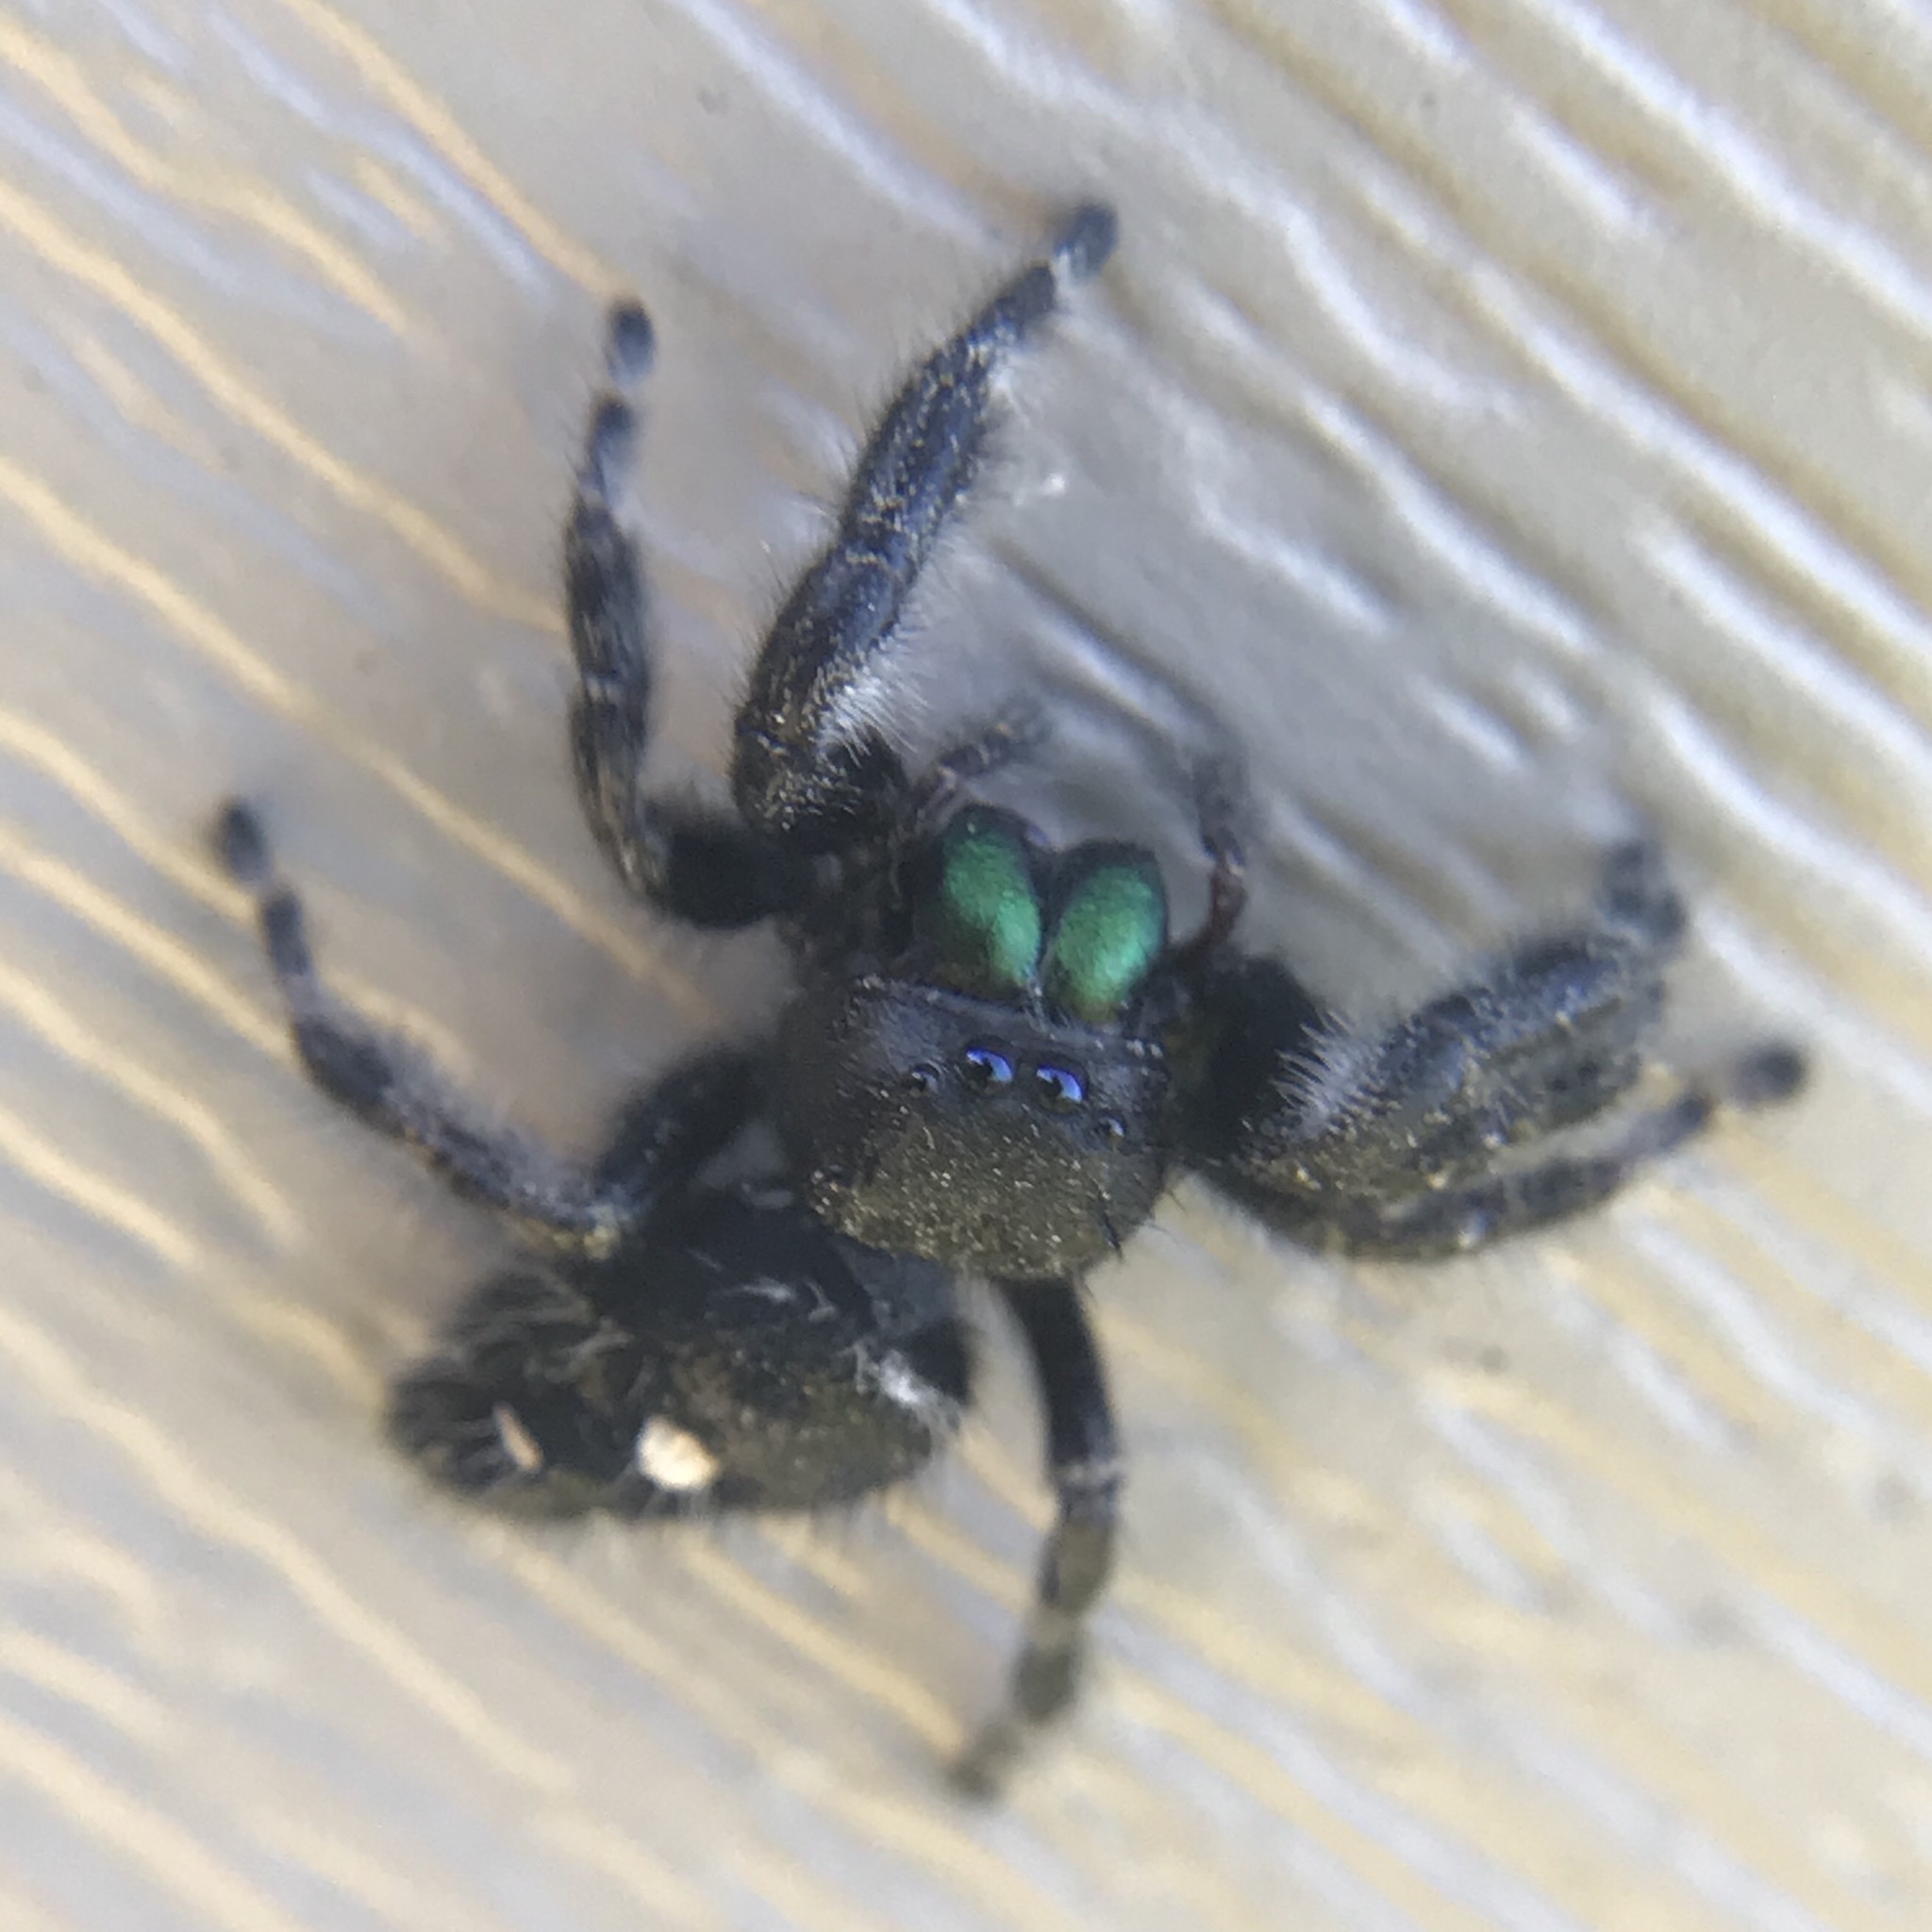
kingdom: Animalia
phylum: Arthropoda
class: Arachnida
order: Araneae
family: Salticidae
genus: Phidippus
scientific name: Phidippus audax
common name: Bold jumper
